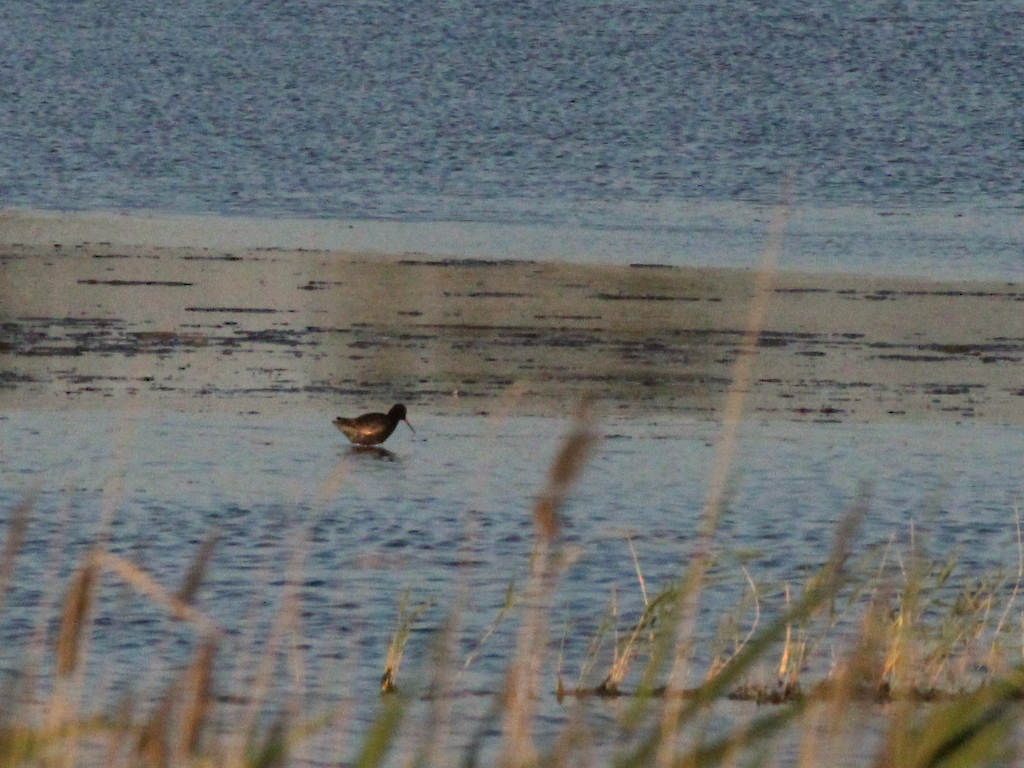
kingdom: Animalia
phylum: Chordata
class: Aves
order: Charadriiformes
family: Scolopacidae
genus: Tringa
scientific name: Tringa erythropus
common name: Spotted redshank
